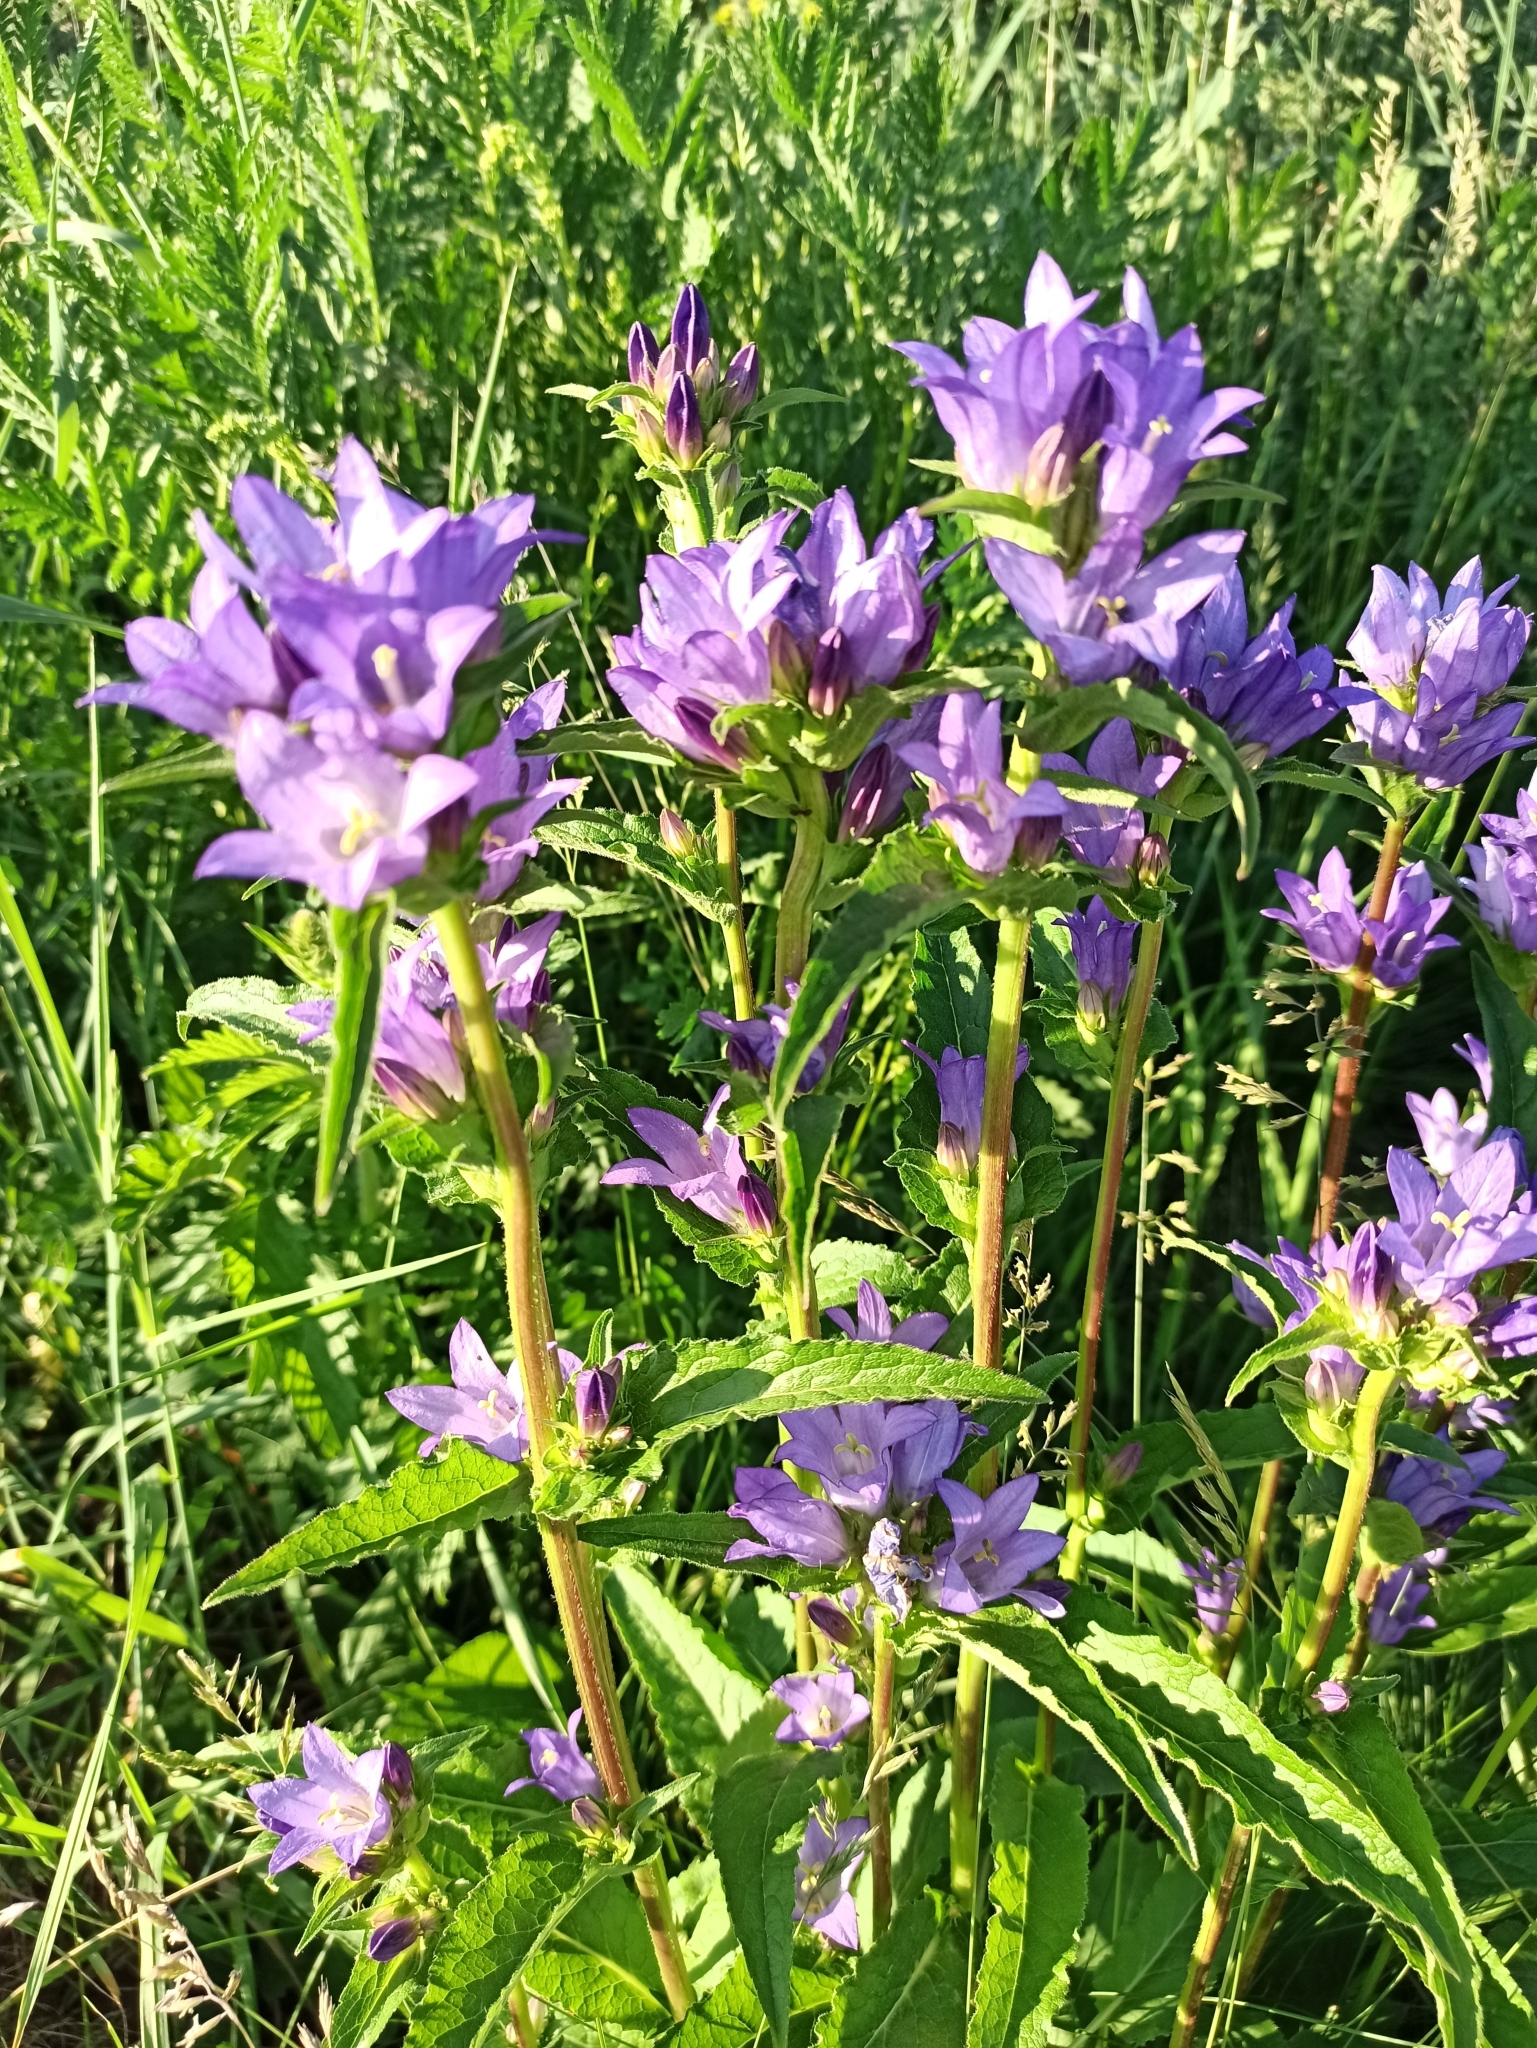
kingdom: Plantae
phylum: Tracheophyta
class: Magnoliopsida
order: Asterales
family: Campanulaceae
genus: Campanula
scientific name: Campanula glomerata
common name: Clustered bellflower
